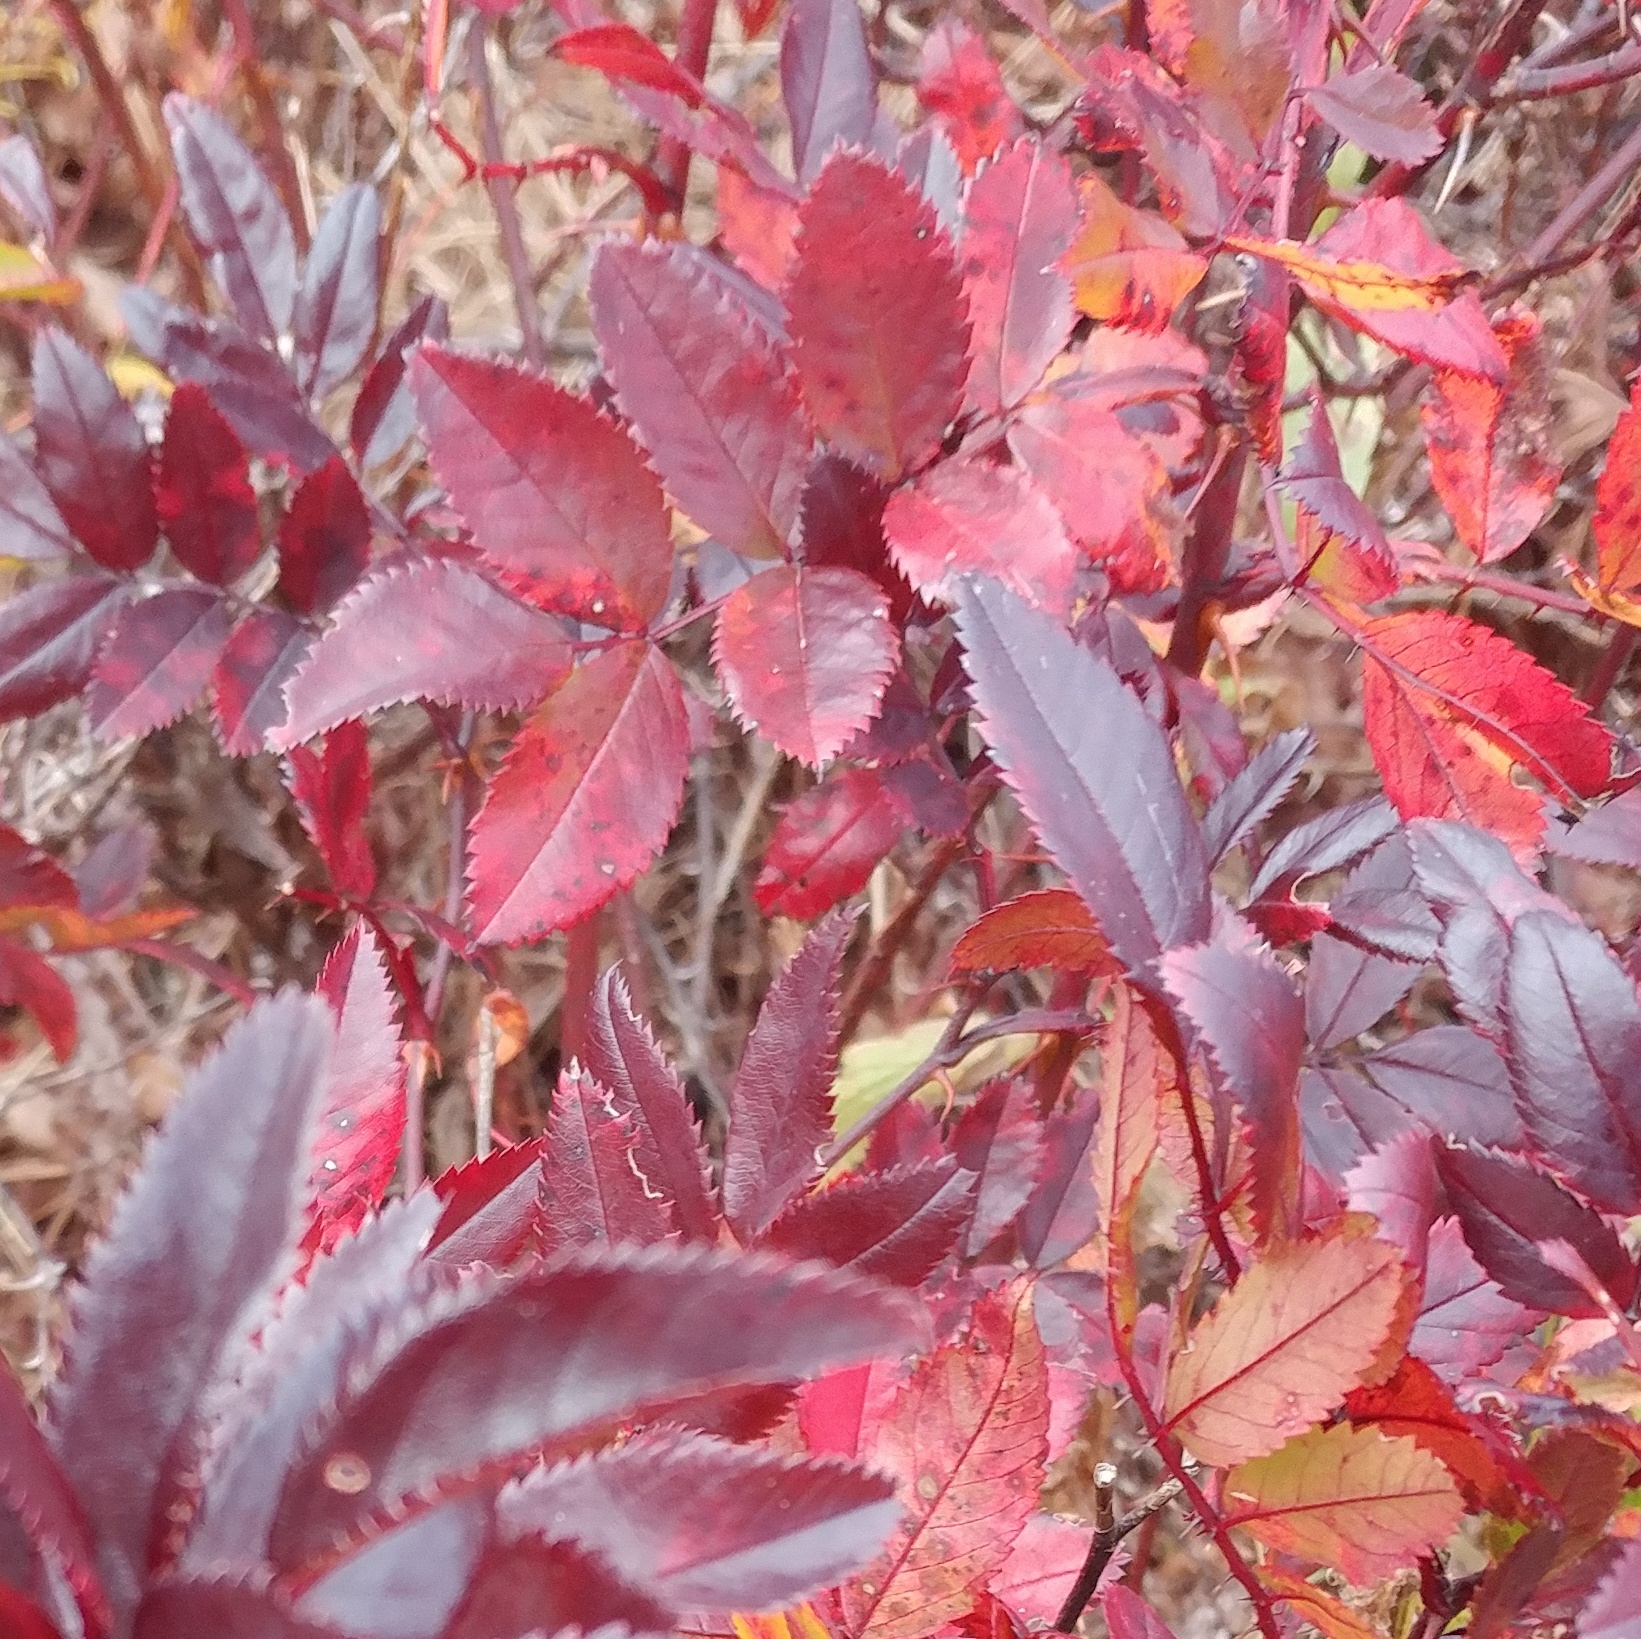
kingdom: Plantae
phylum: Tracheophyta
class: Magnoliopsida
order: Rosales
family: Rosaceae
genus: Rosa
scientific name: Rosa multiflora
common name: Multiflora rose
